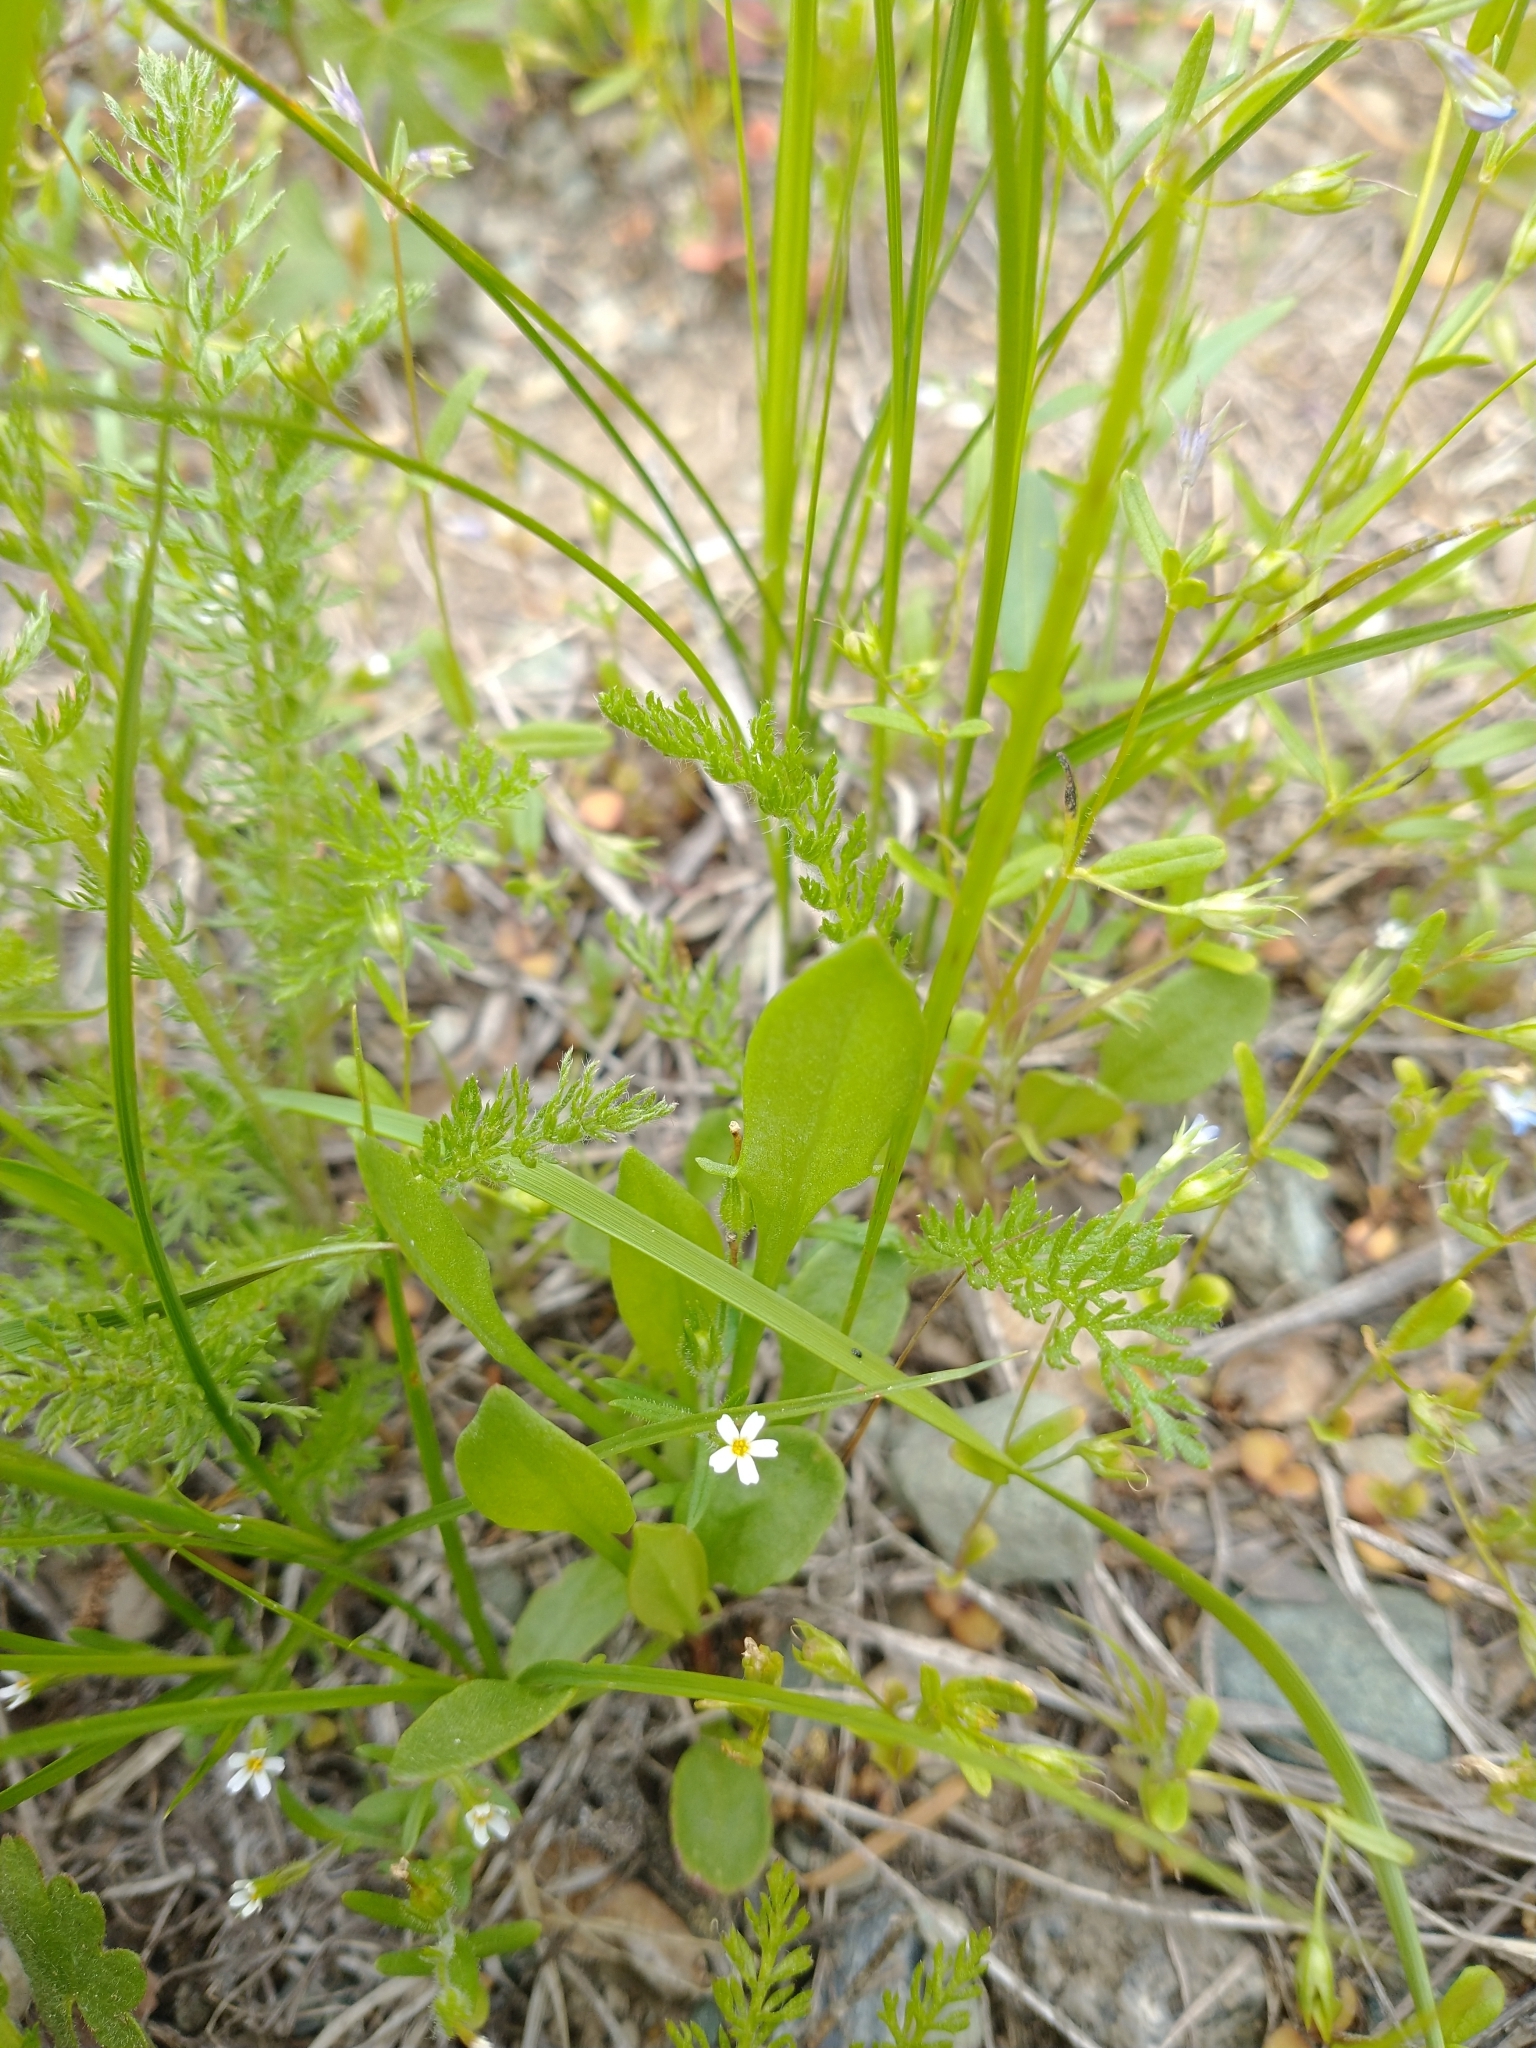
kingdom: Plantae
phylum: Tracheophyta
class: Magnoliopsida
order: Ericales
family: Polemoniaceae
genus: Phlox
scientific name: Phlox gracilis
